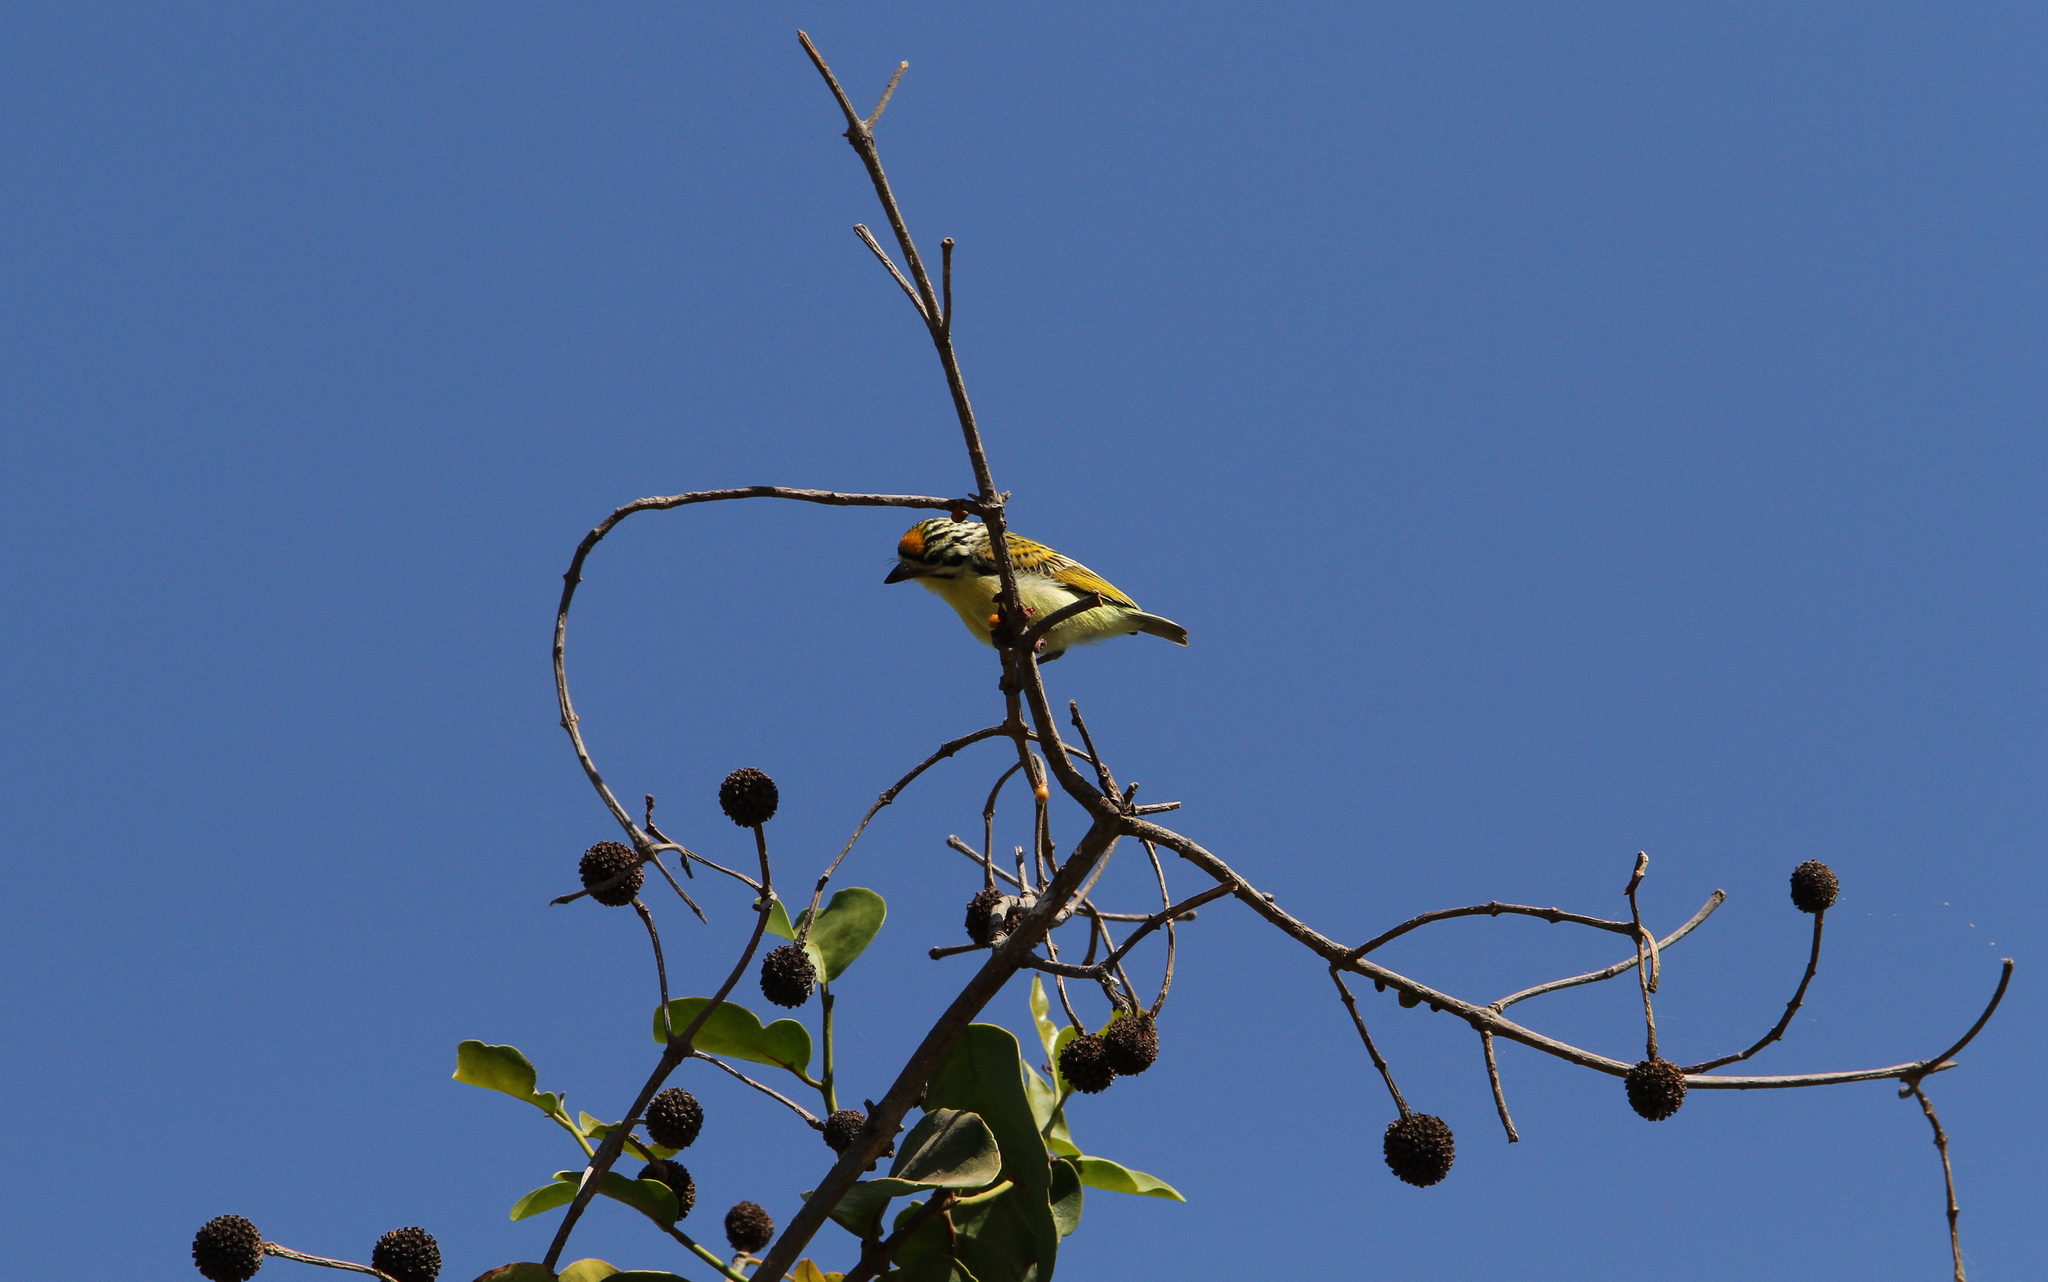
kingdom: Animalia
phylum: Chordata
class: Aves
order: Piciformes
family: Lybiidae
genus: Pogoniulus
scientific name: Pogoniulus chrysoconus
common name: Yellow-fronted tinkerbird
